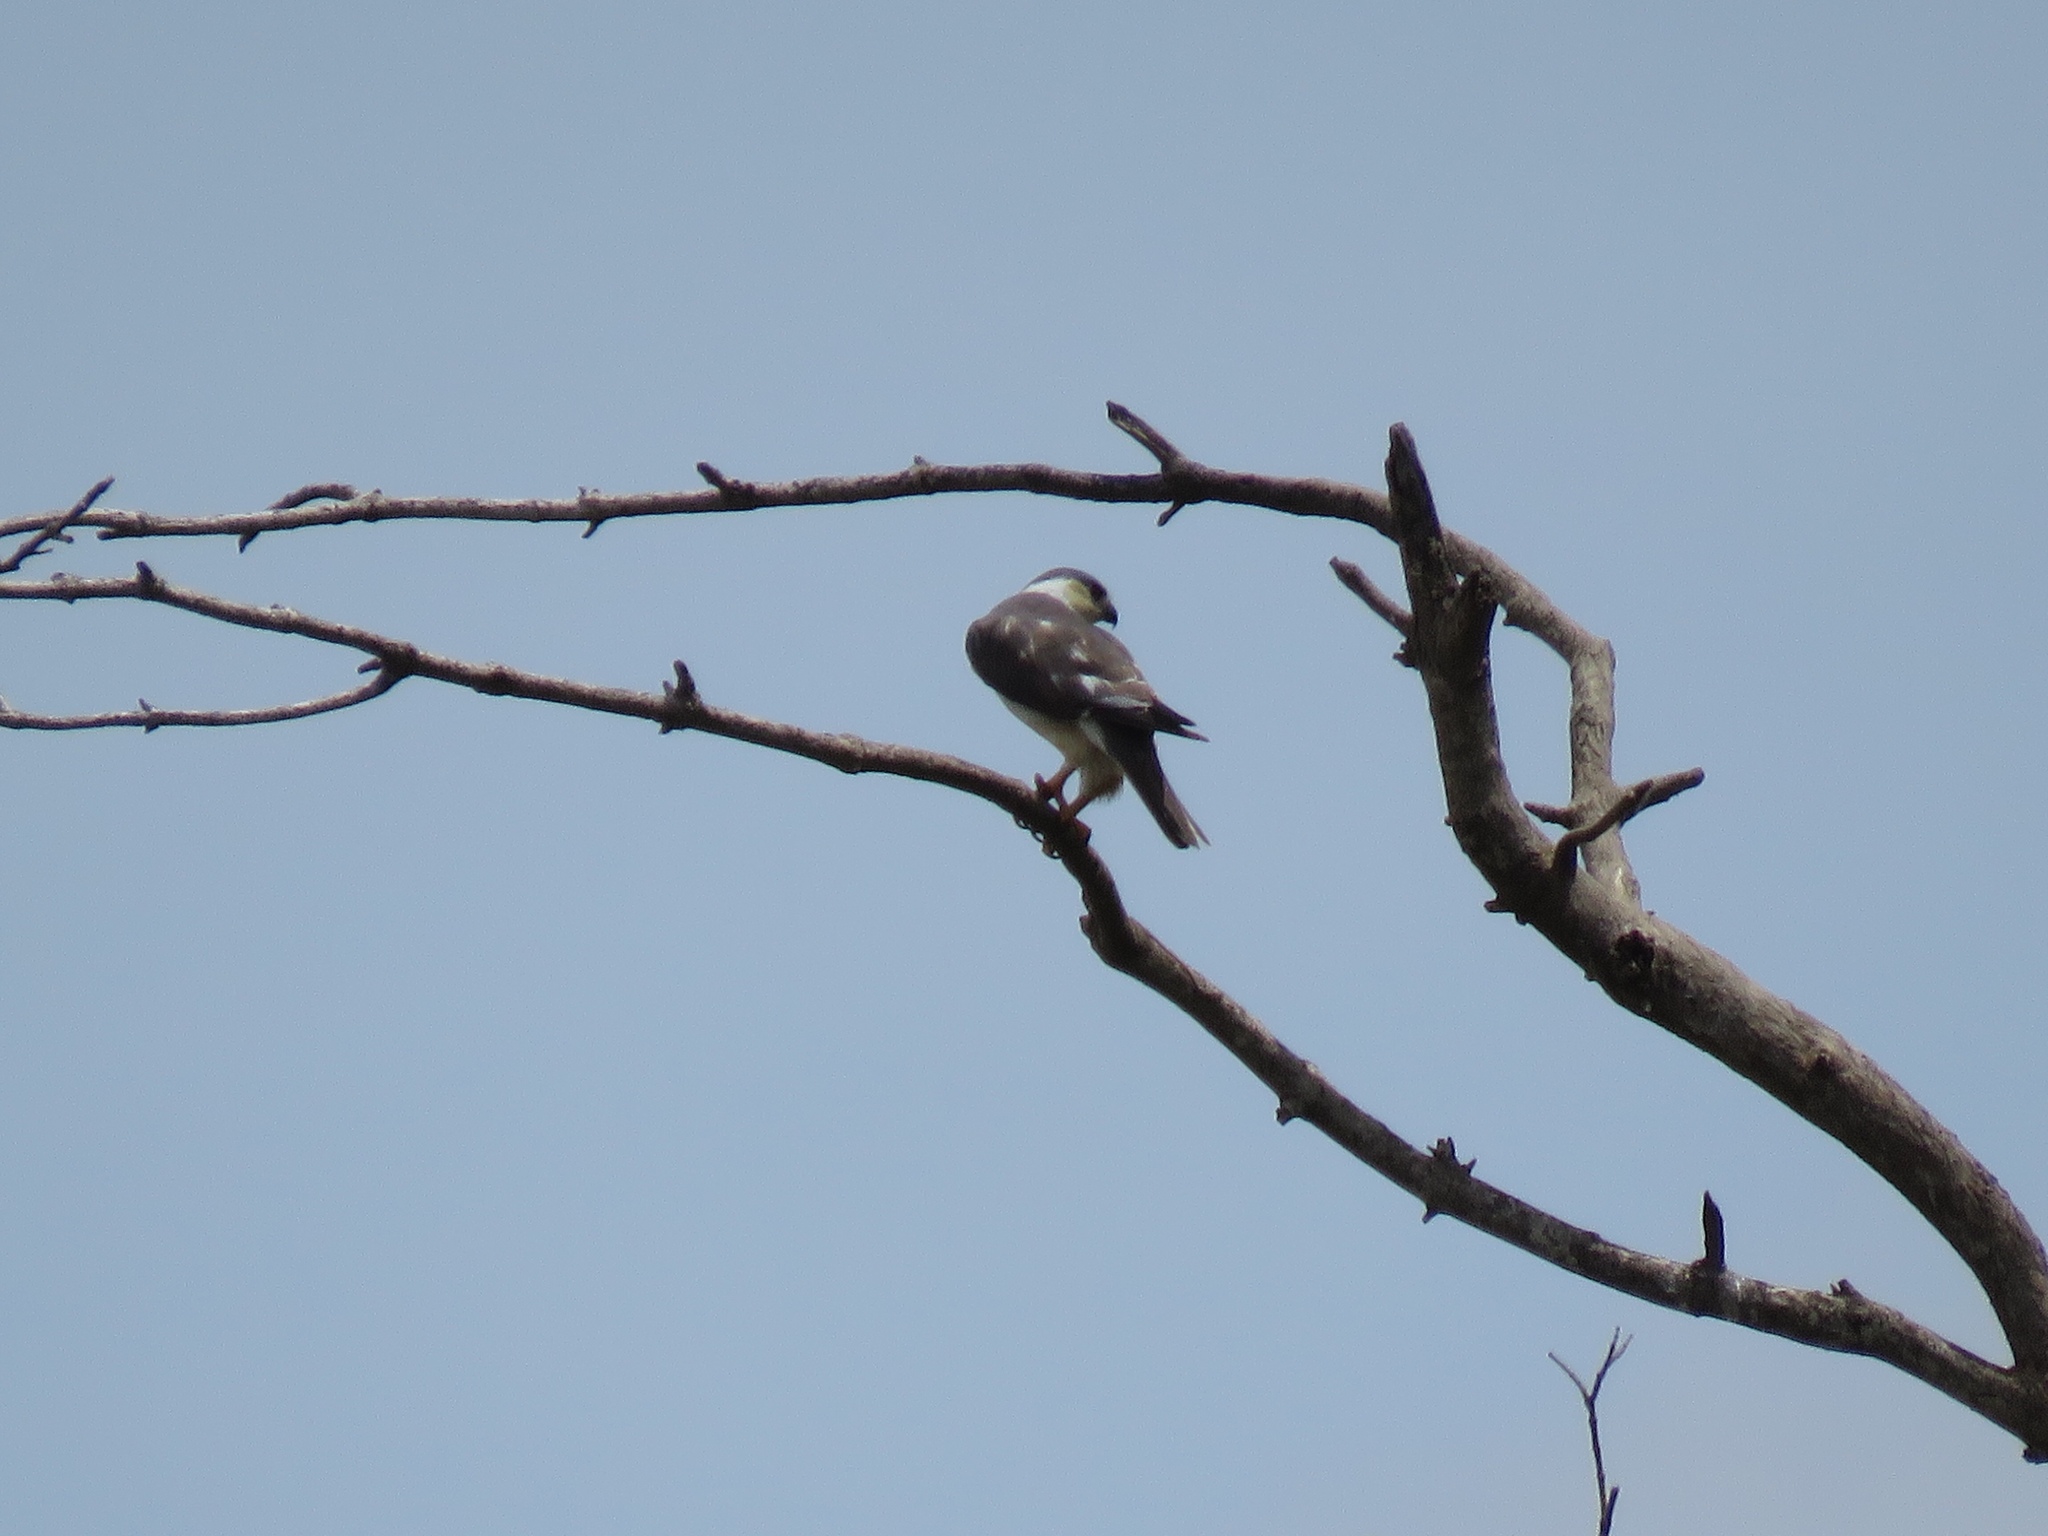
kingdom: Animalia
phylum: Chordata
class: Aves
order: Accipitriformes
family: Accipitridae
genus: Gampsonyx
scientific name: Gampsonyx swainsonii
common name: Pearl kite
